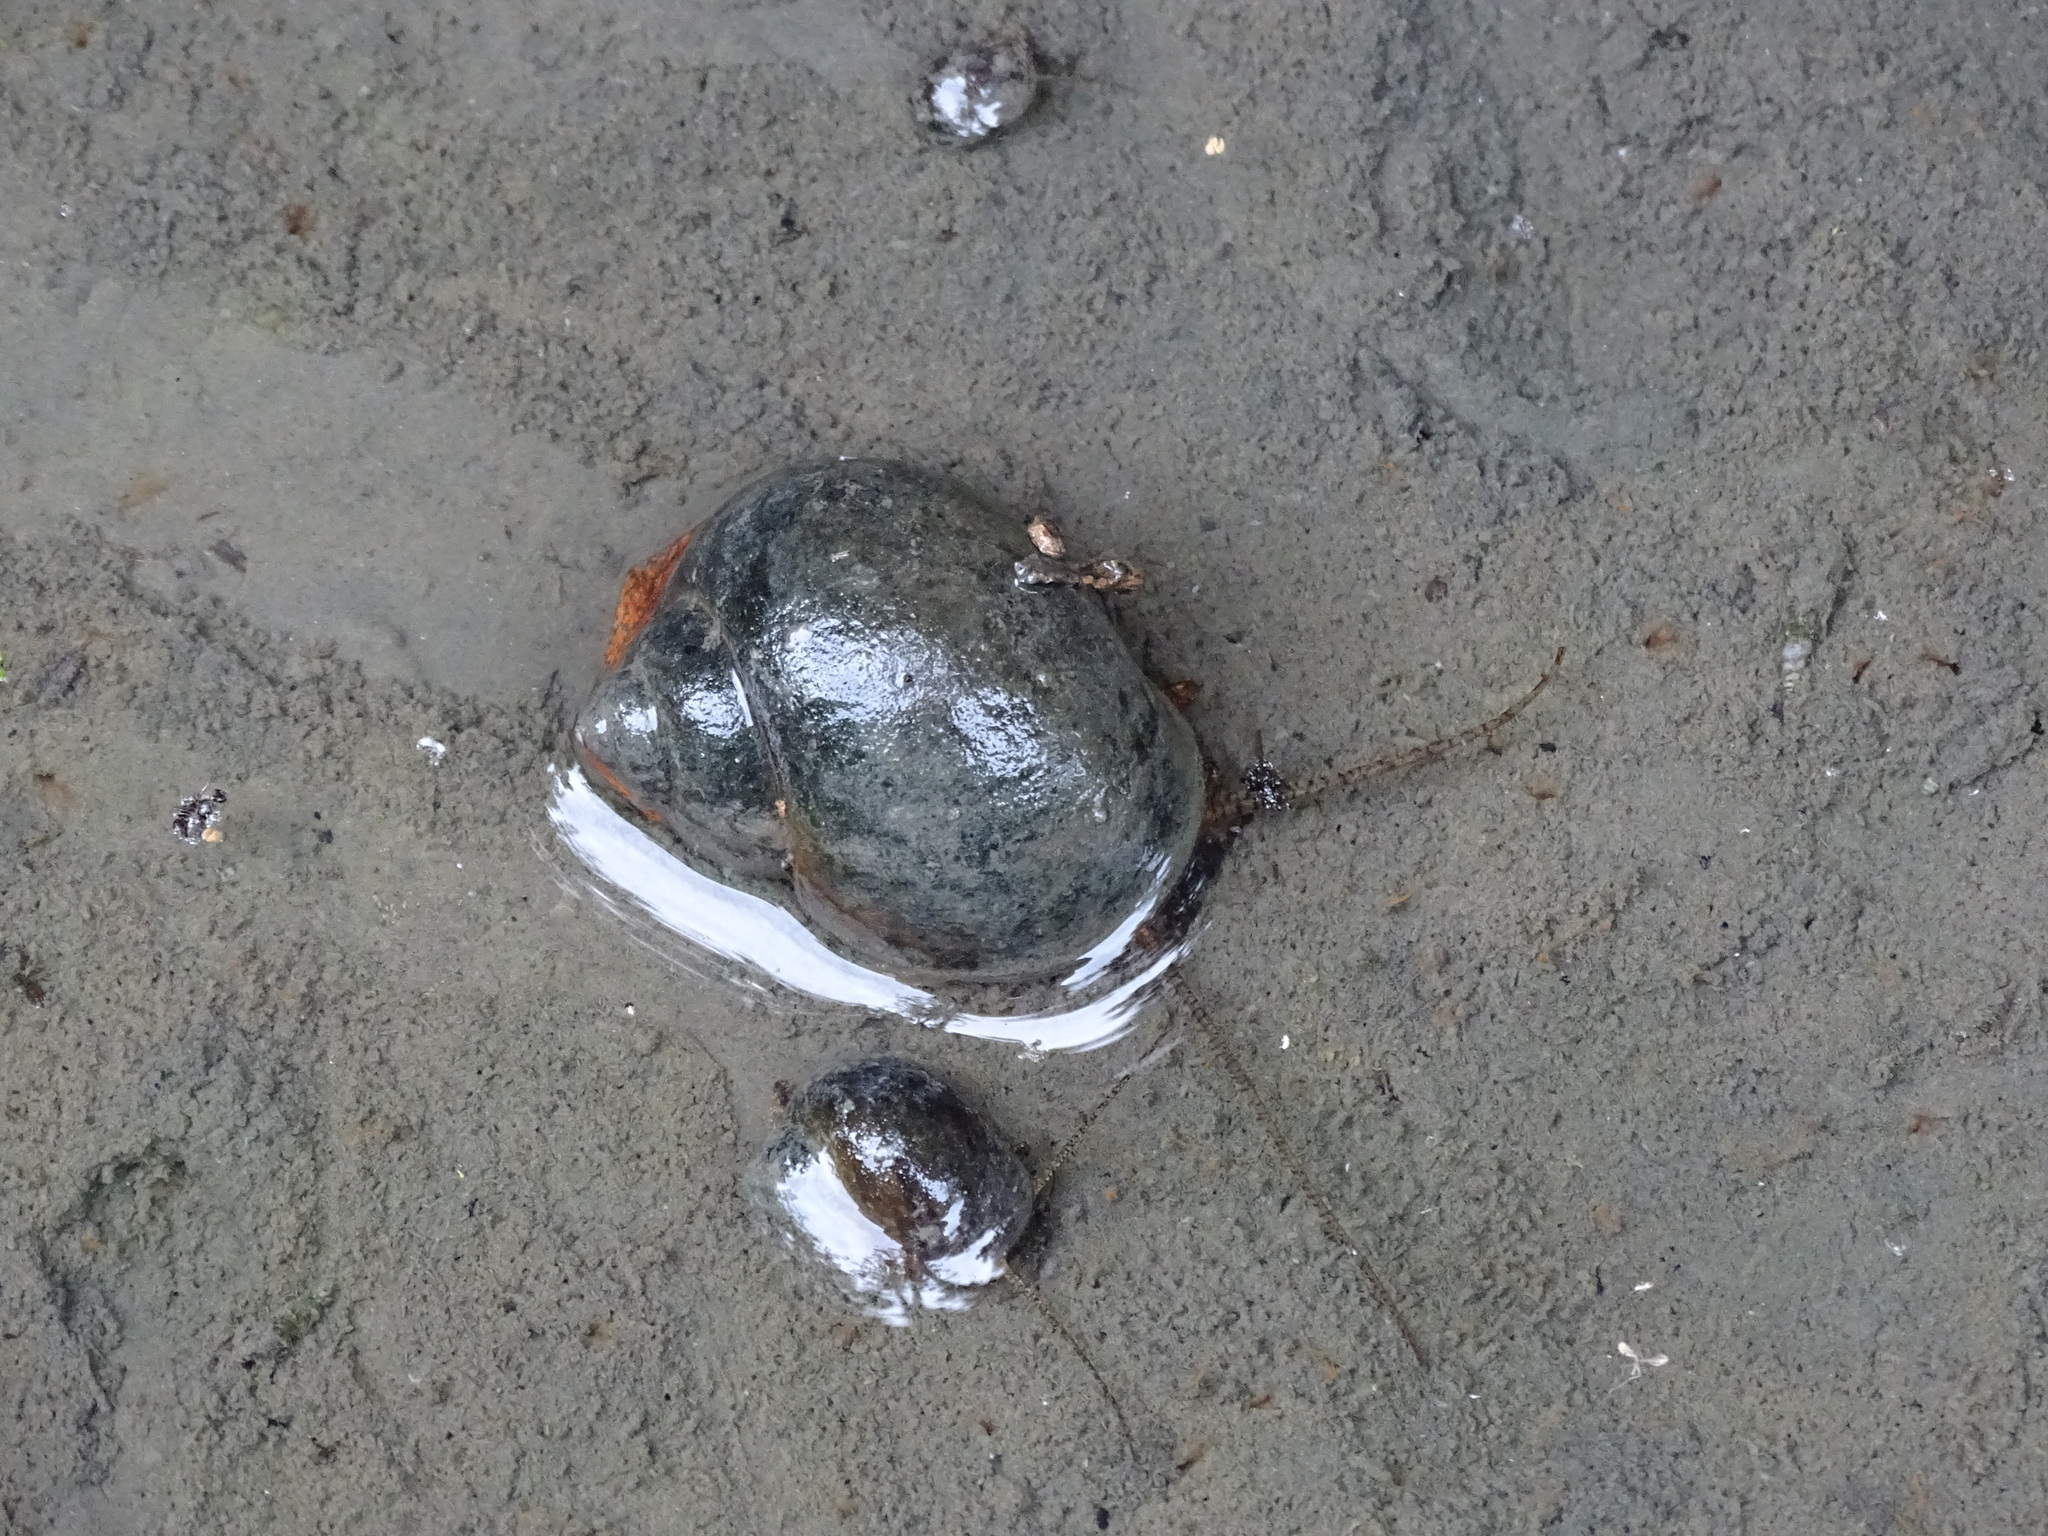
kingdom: Animalia
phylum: Mollusca
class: Gastropoda
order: Architaenioglossa
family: Ampullariidae
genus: Pomacea
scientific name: Pomacea canaliculata
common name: Channeled applesnail
